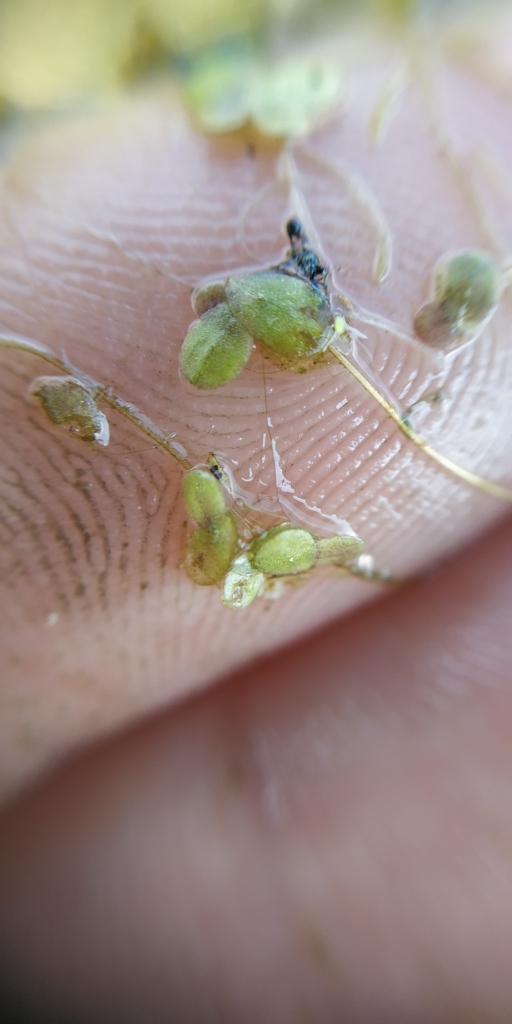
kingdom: Plantae
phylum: Tracheophyta
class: Liliopsida
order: Alismatales
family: Araceae
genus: Lemna
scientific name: Lemna minor
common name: Common duckweed
